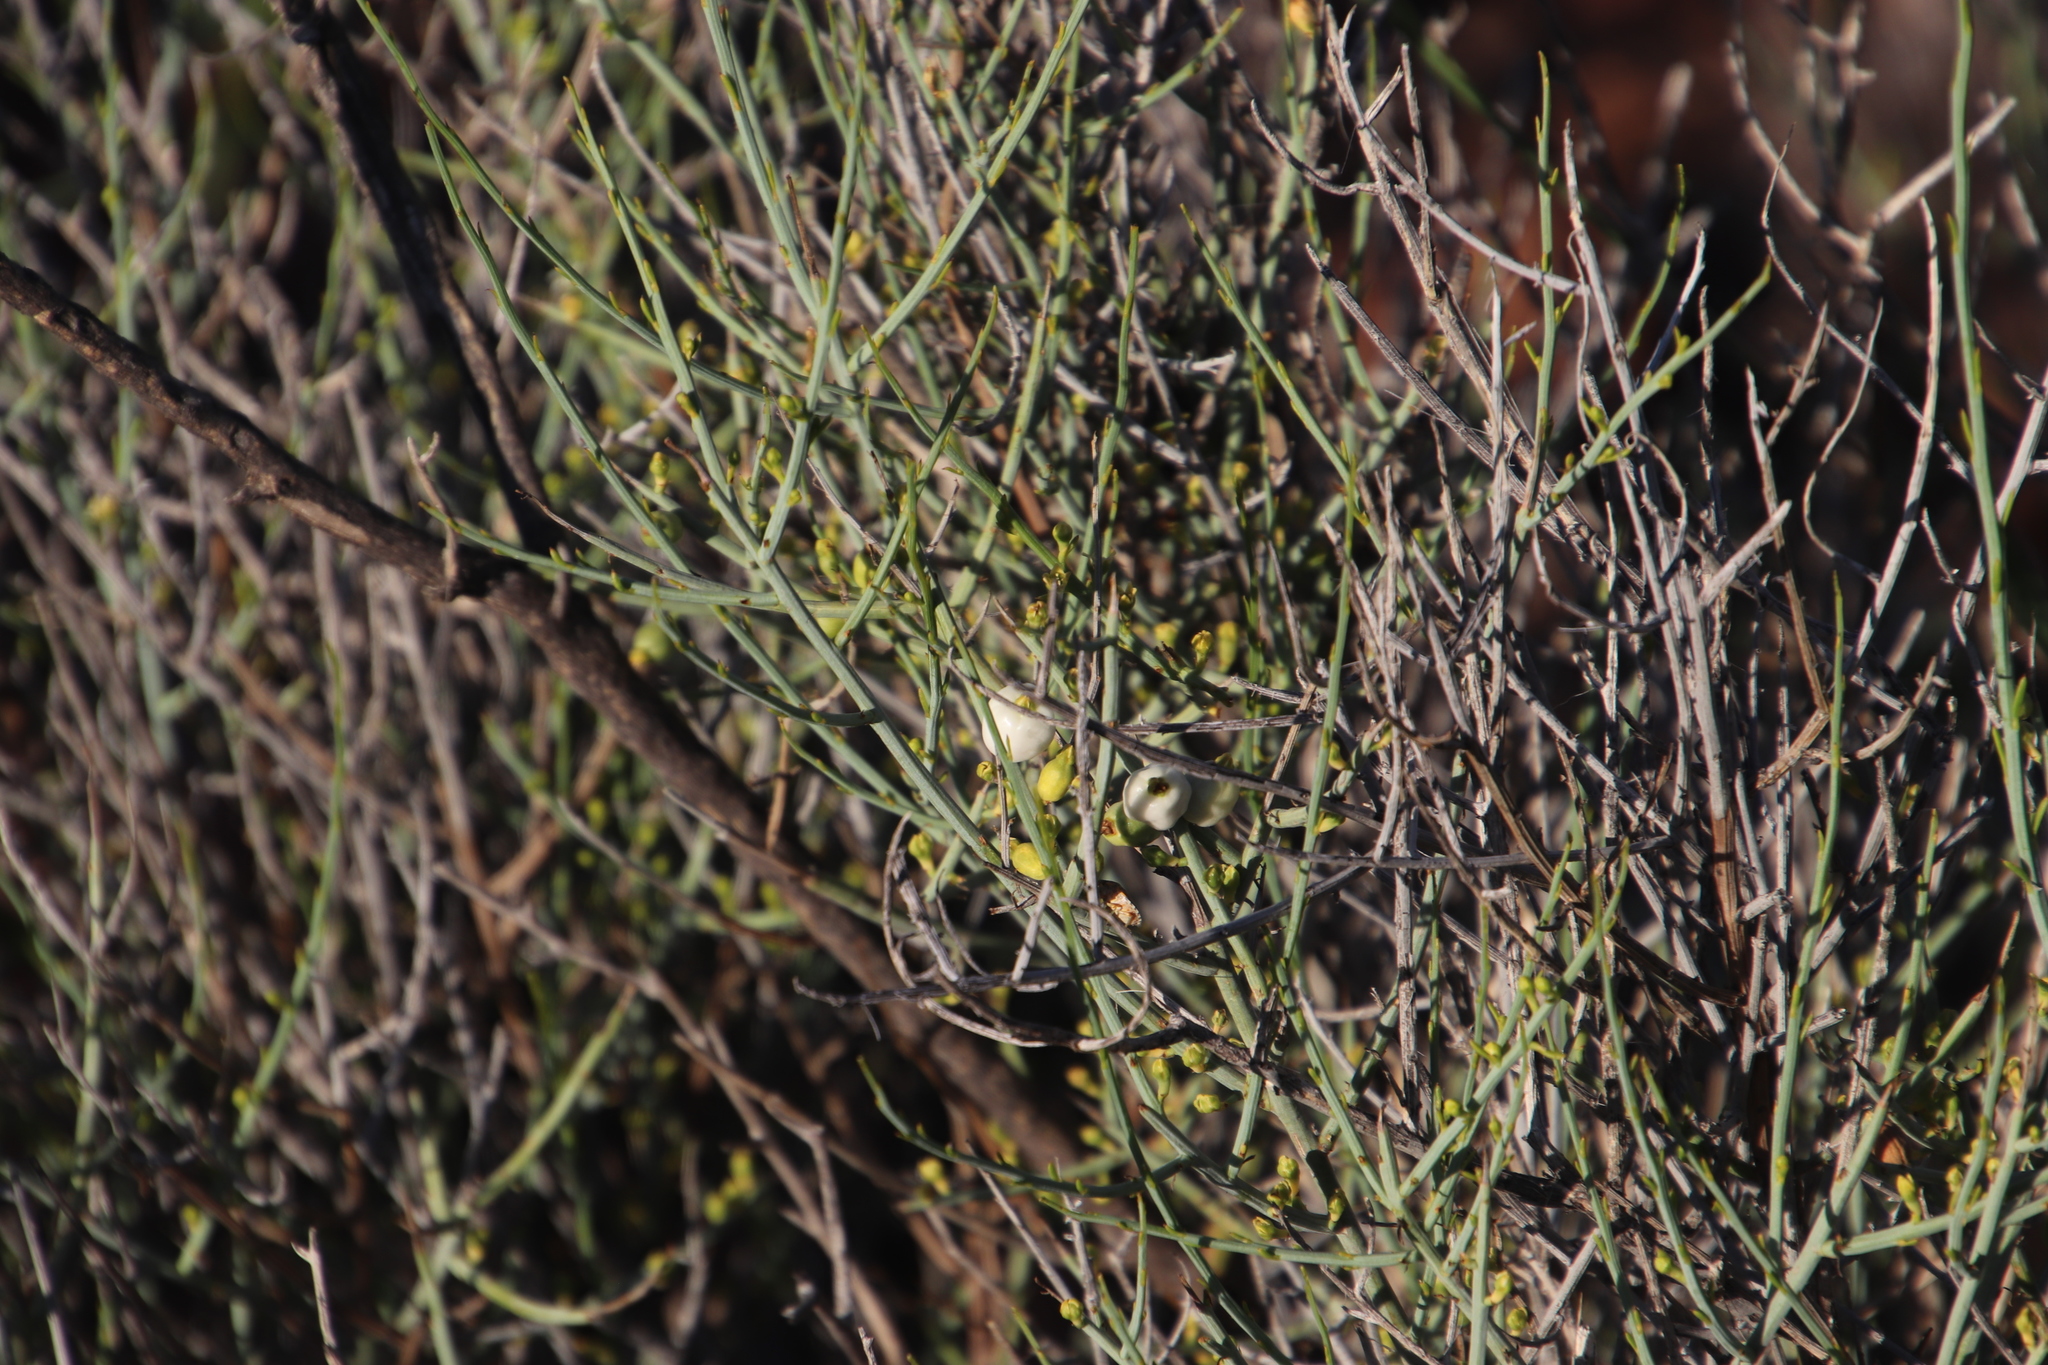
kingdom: Plantae
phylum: Tracheophyta
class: Magnoliopsida
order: Santalales
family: Thesiaceae
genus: Lacomucinaea
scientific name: Lacomucinaea lineata
